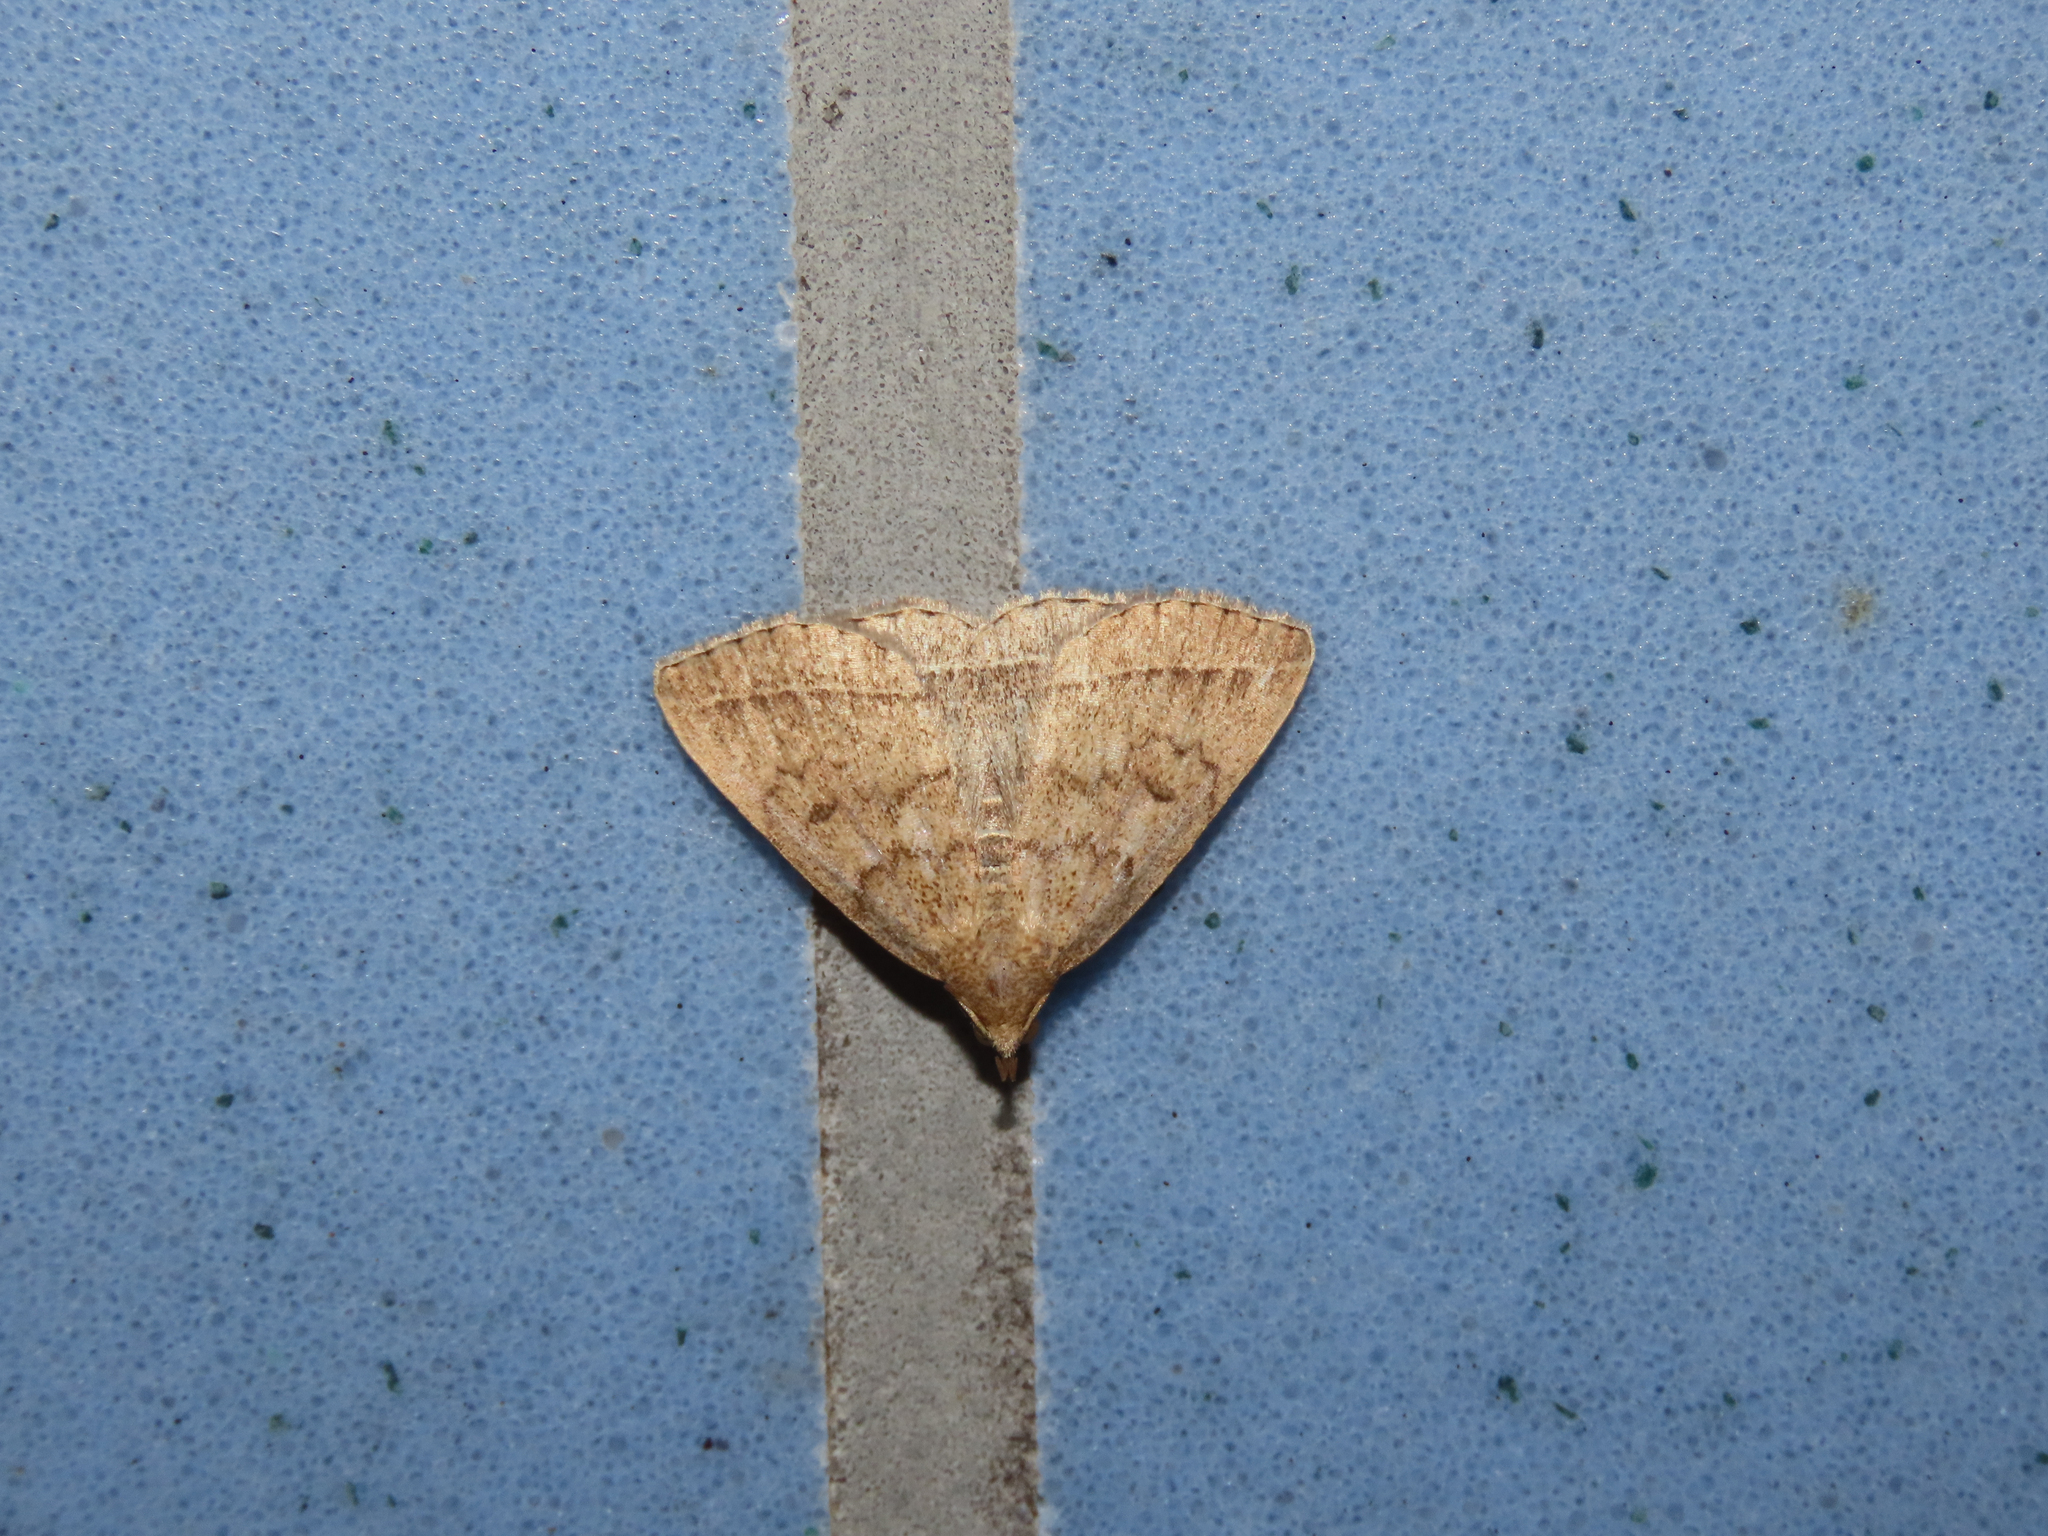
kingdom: Animalia
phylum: Arthropoda
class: Insecta
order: Lepidoptera
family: Erebidae
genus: Zanclognatha
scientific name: Zanclognatha jacchusalis
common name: Yellowish zanclognatha
